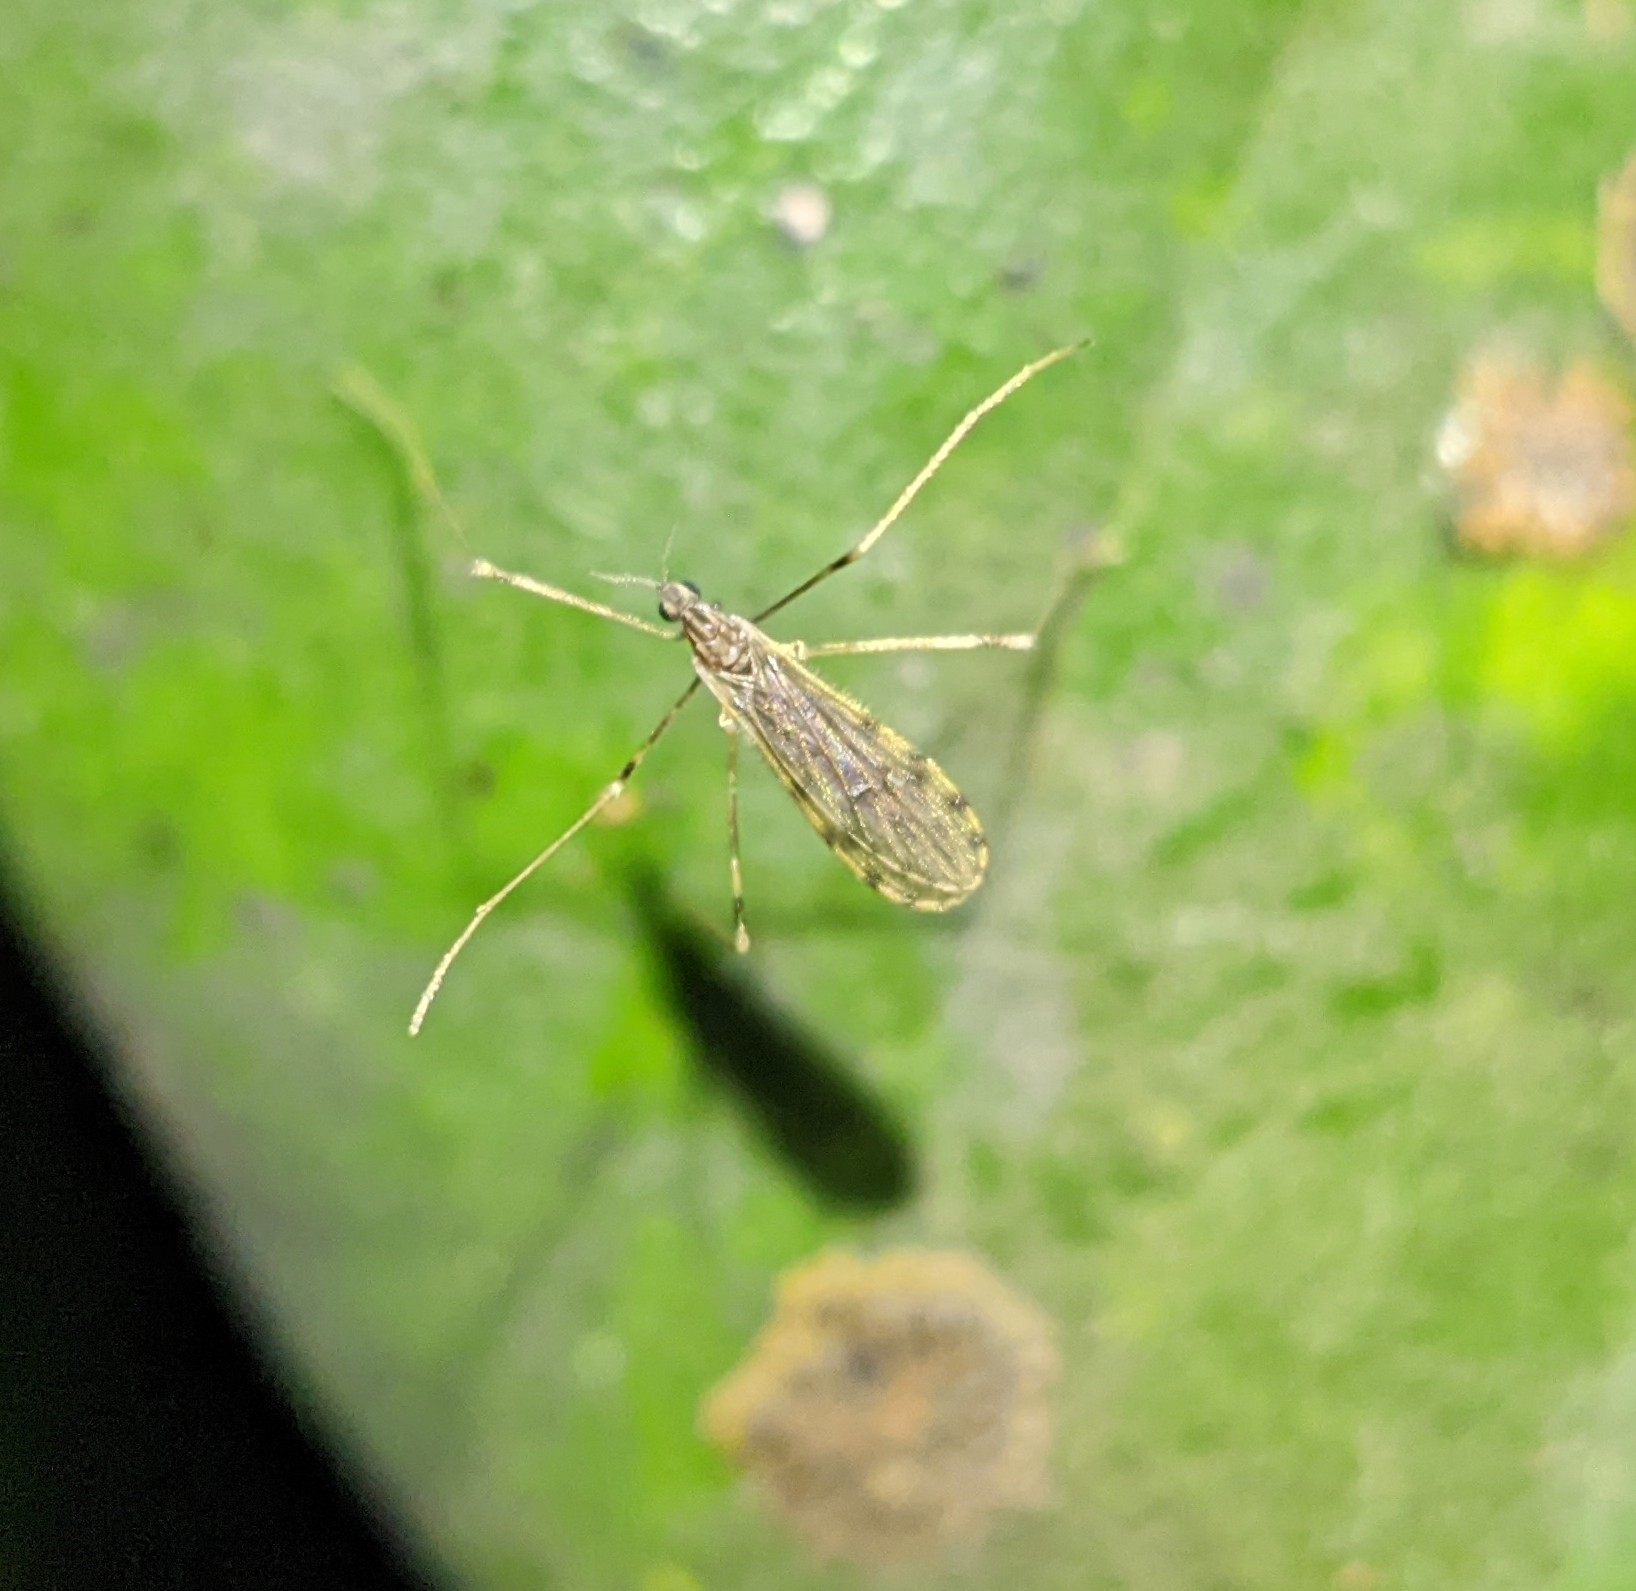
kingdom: Animalia
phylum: Arthropoda
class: Insecta
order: Diptera
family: Limoniidae
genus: Erioptera
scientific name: Erioptera parva
